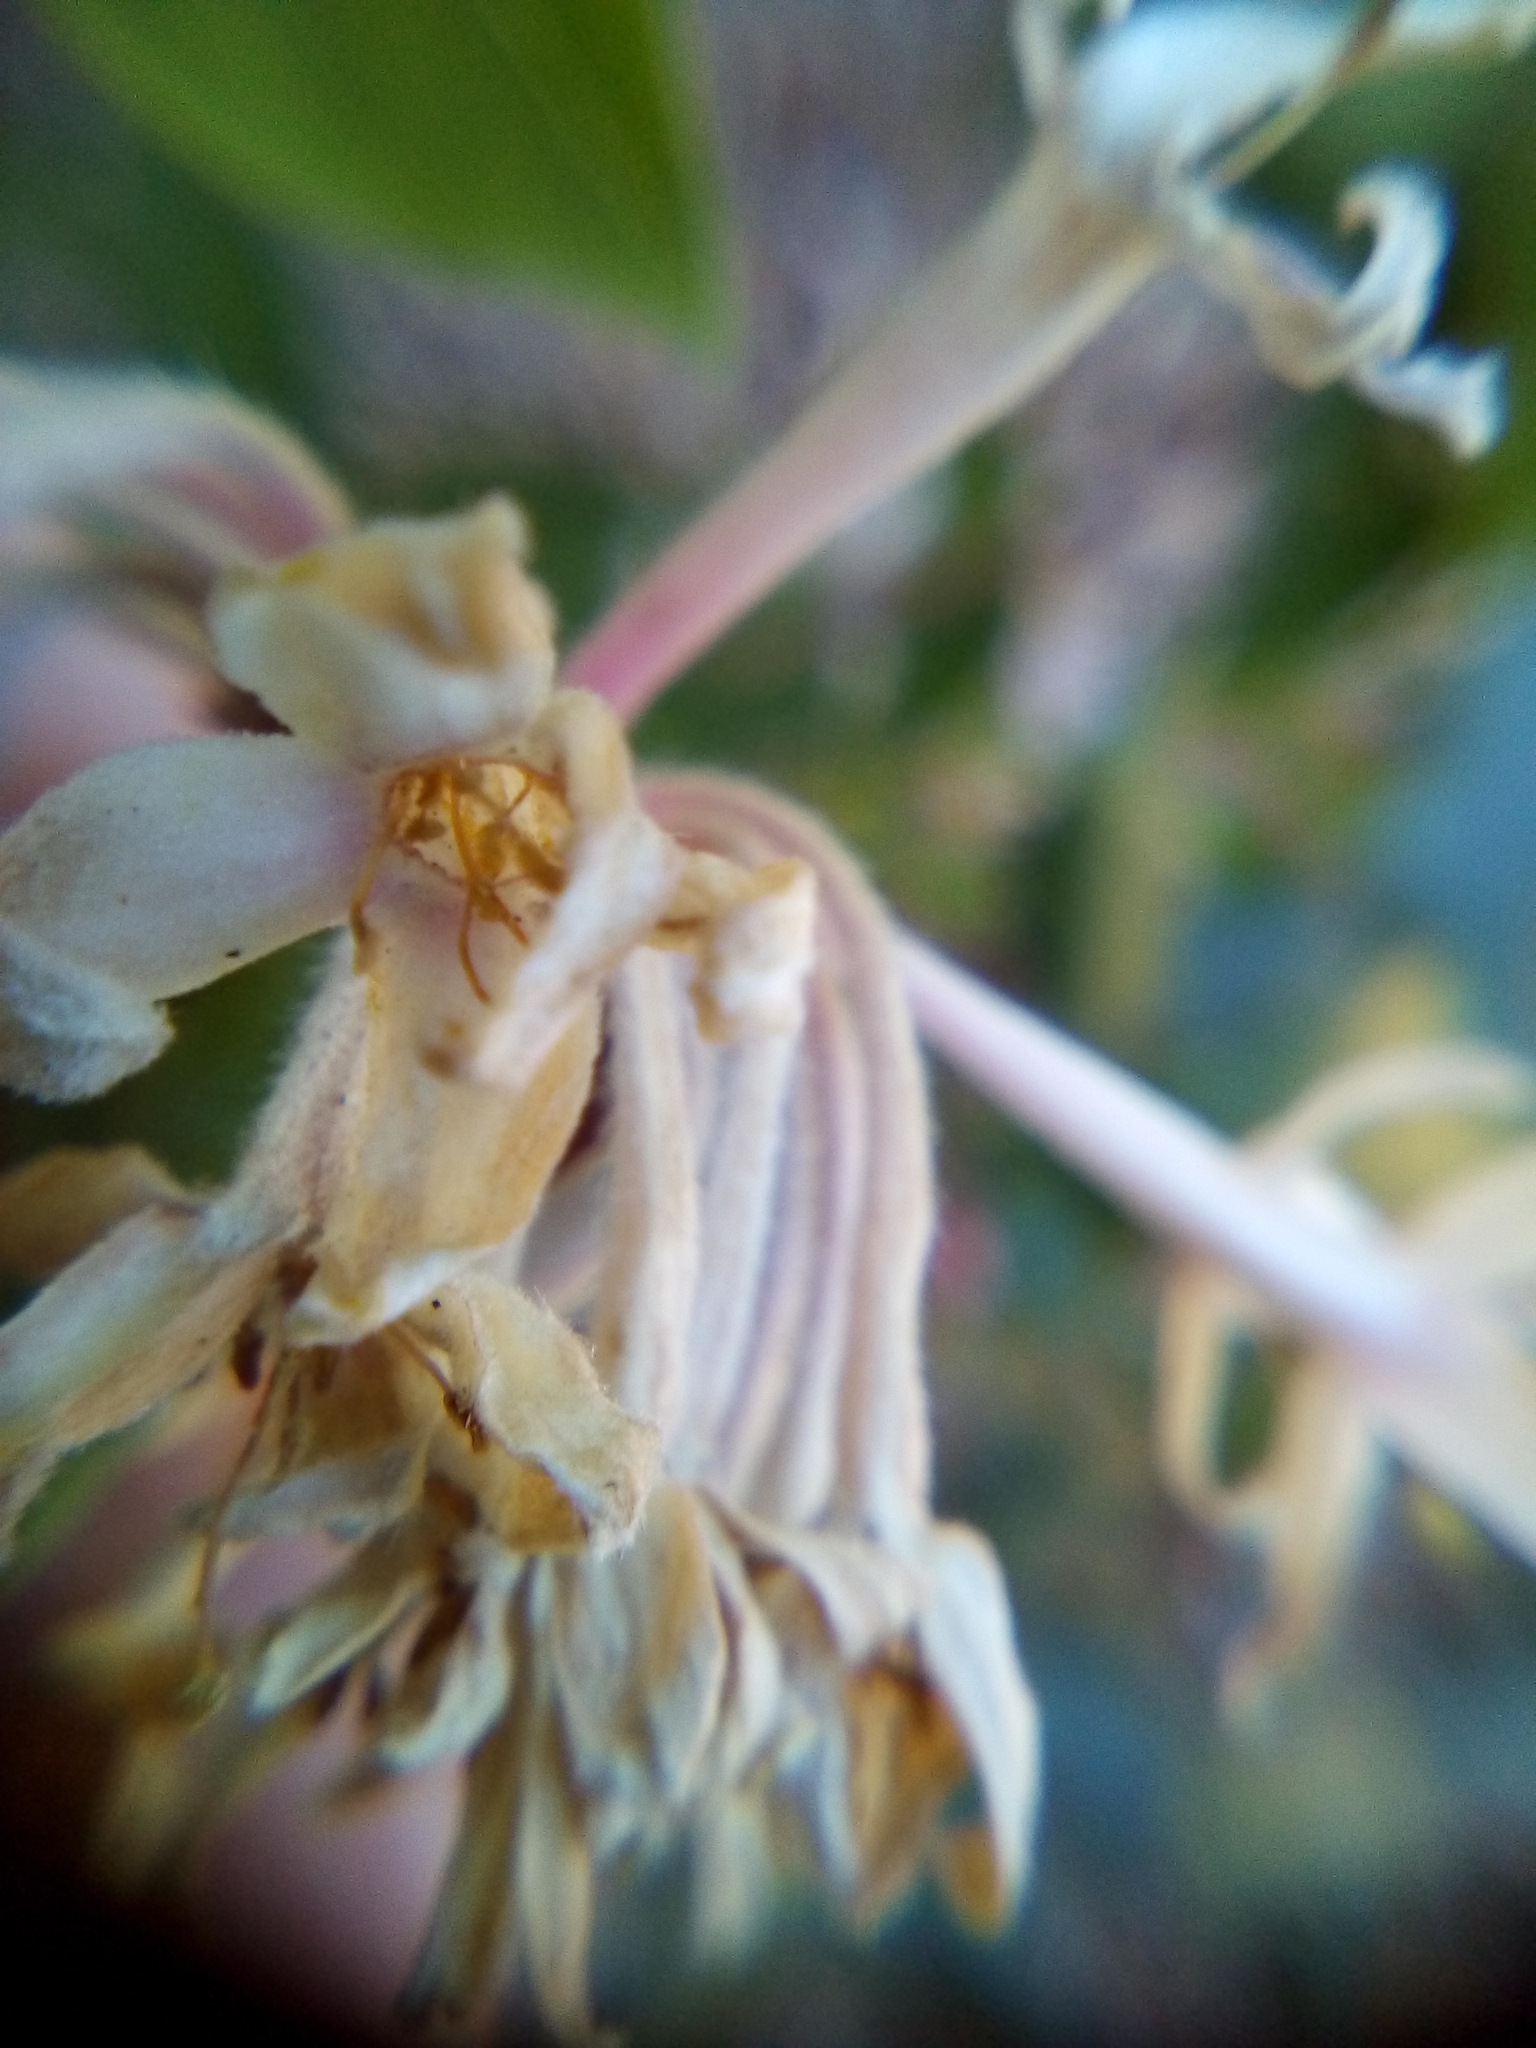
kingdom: Plantae
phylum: Tracheophyta
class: Magnoliopsida
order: Malvales
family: Thymelaeaceae
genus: Dais
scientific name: Dais cotinifolia
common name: Pompon tree
